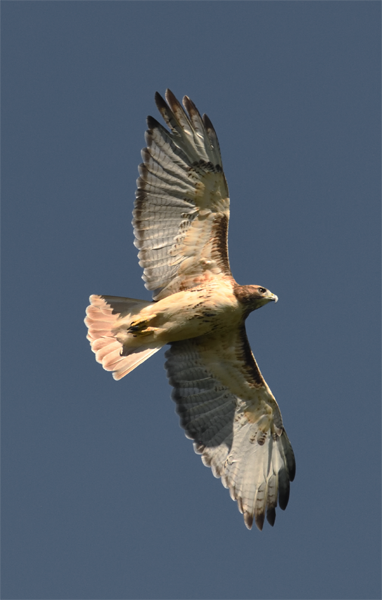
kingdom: Animalia
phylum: Chordata
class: Aves
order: Accipitriformes
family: Accipitridae
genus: Buteo
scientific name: Buteo jamaicensis
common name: Red-tailed hawk
